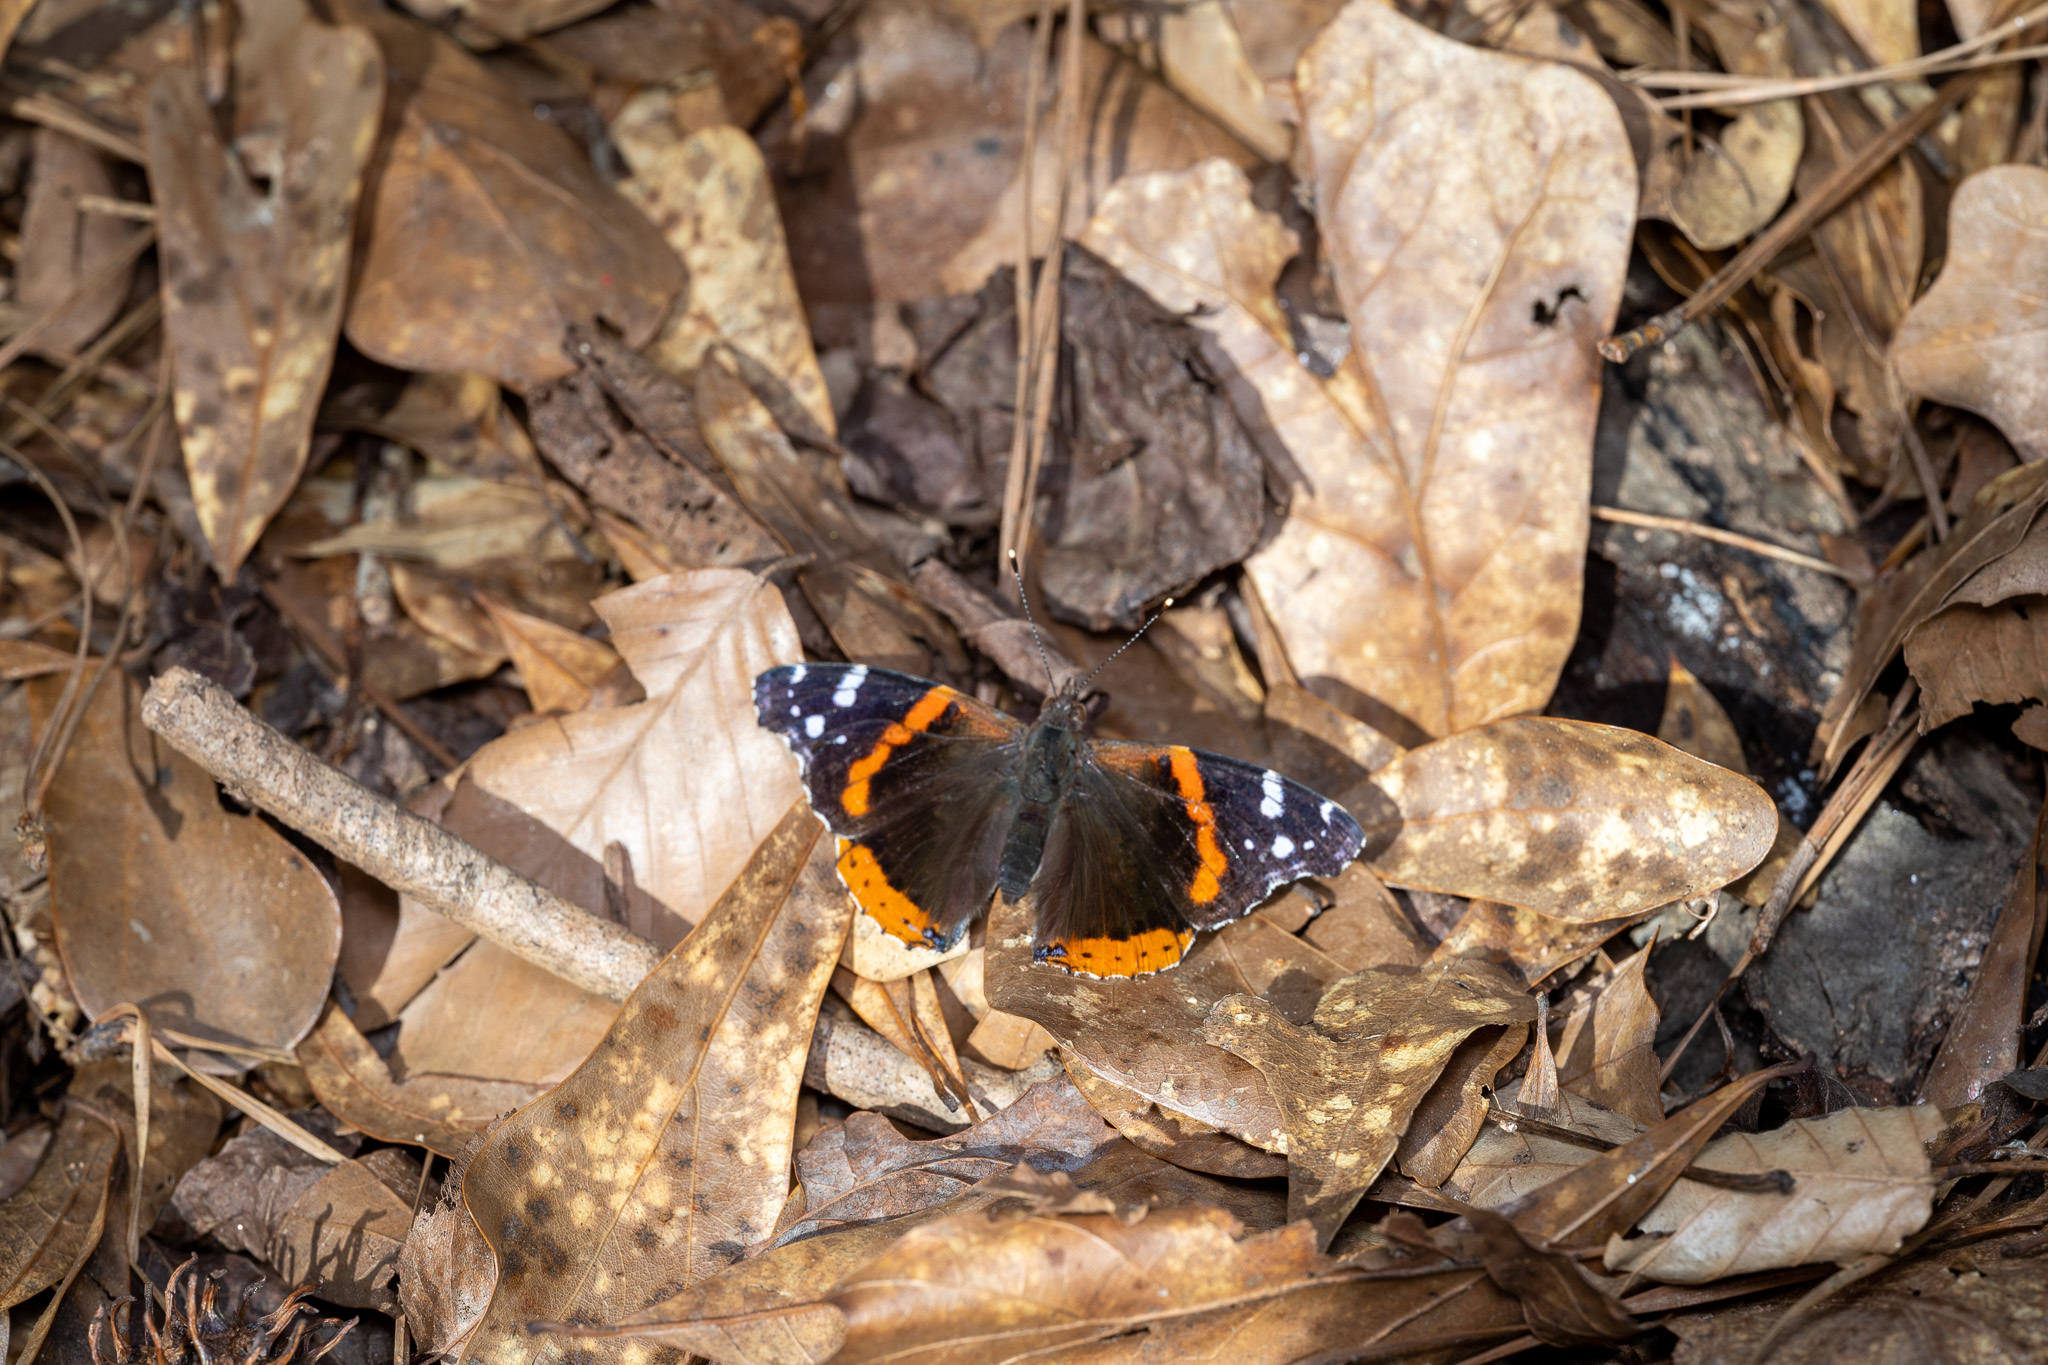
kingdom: Animalia
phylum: Arthropoda
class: Insecta
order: Lepidoptera
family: Nymphalidae
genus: Vanessa
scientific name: Vanessa atalanta
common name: Red admiral
